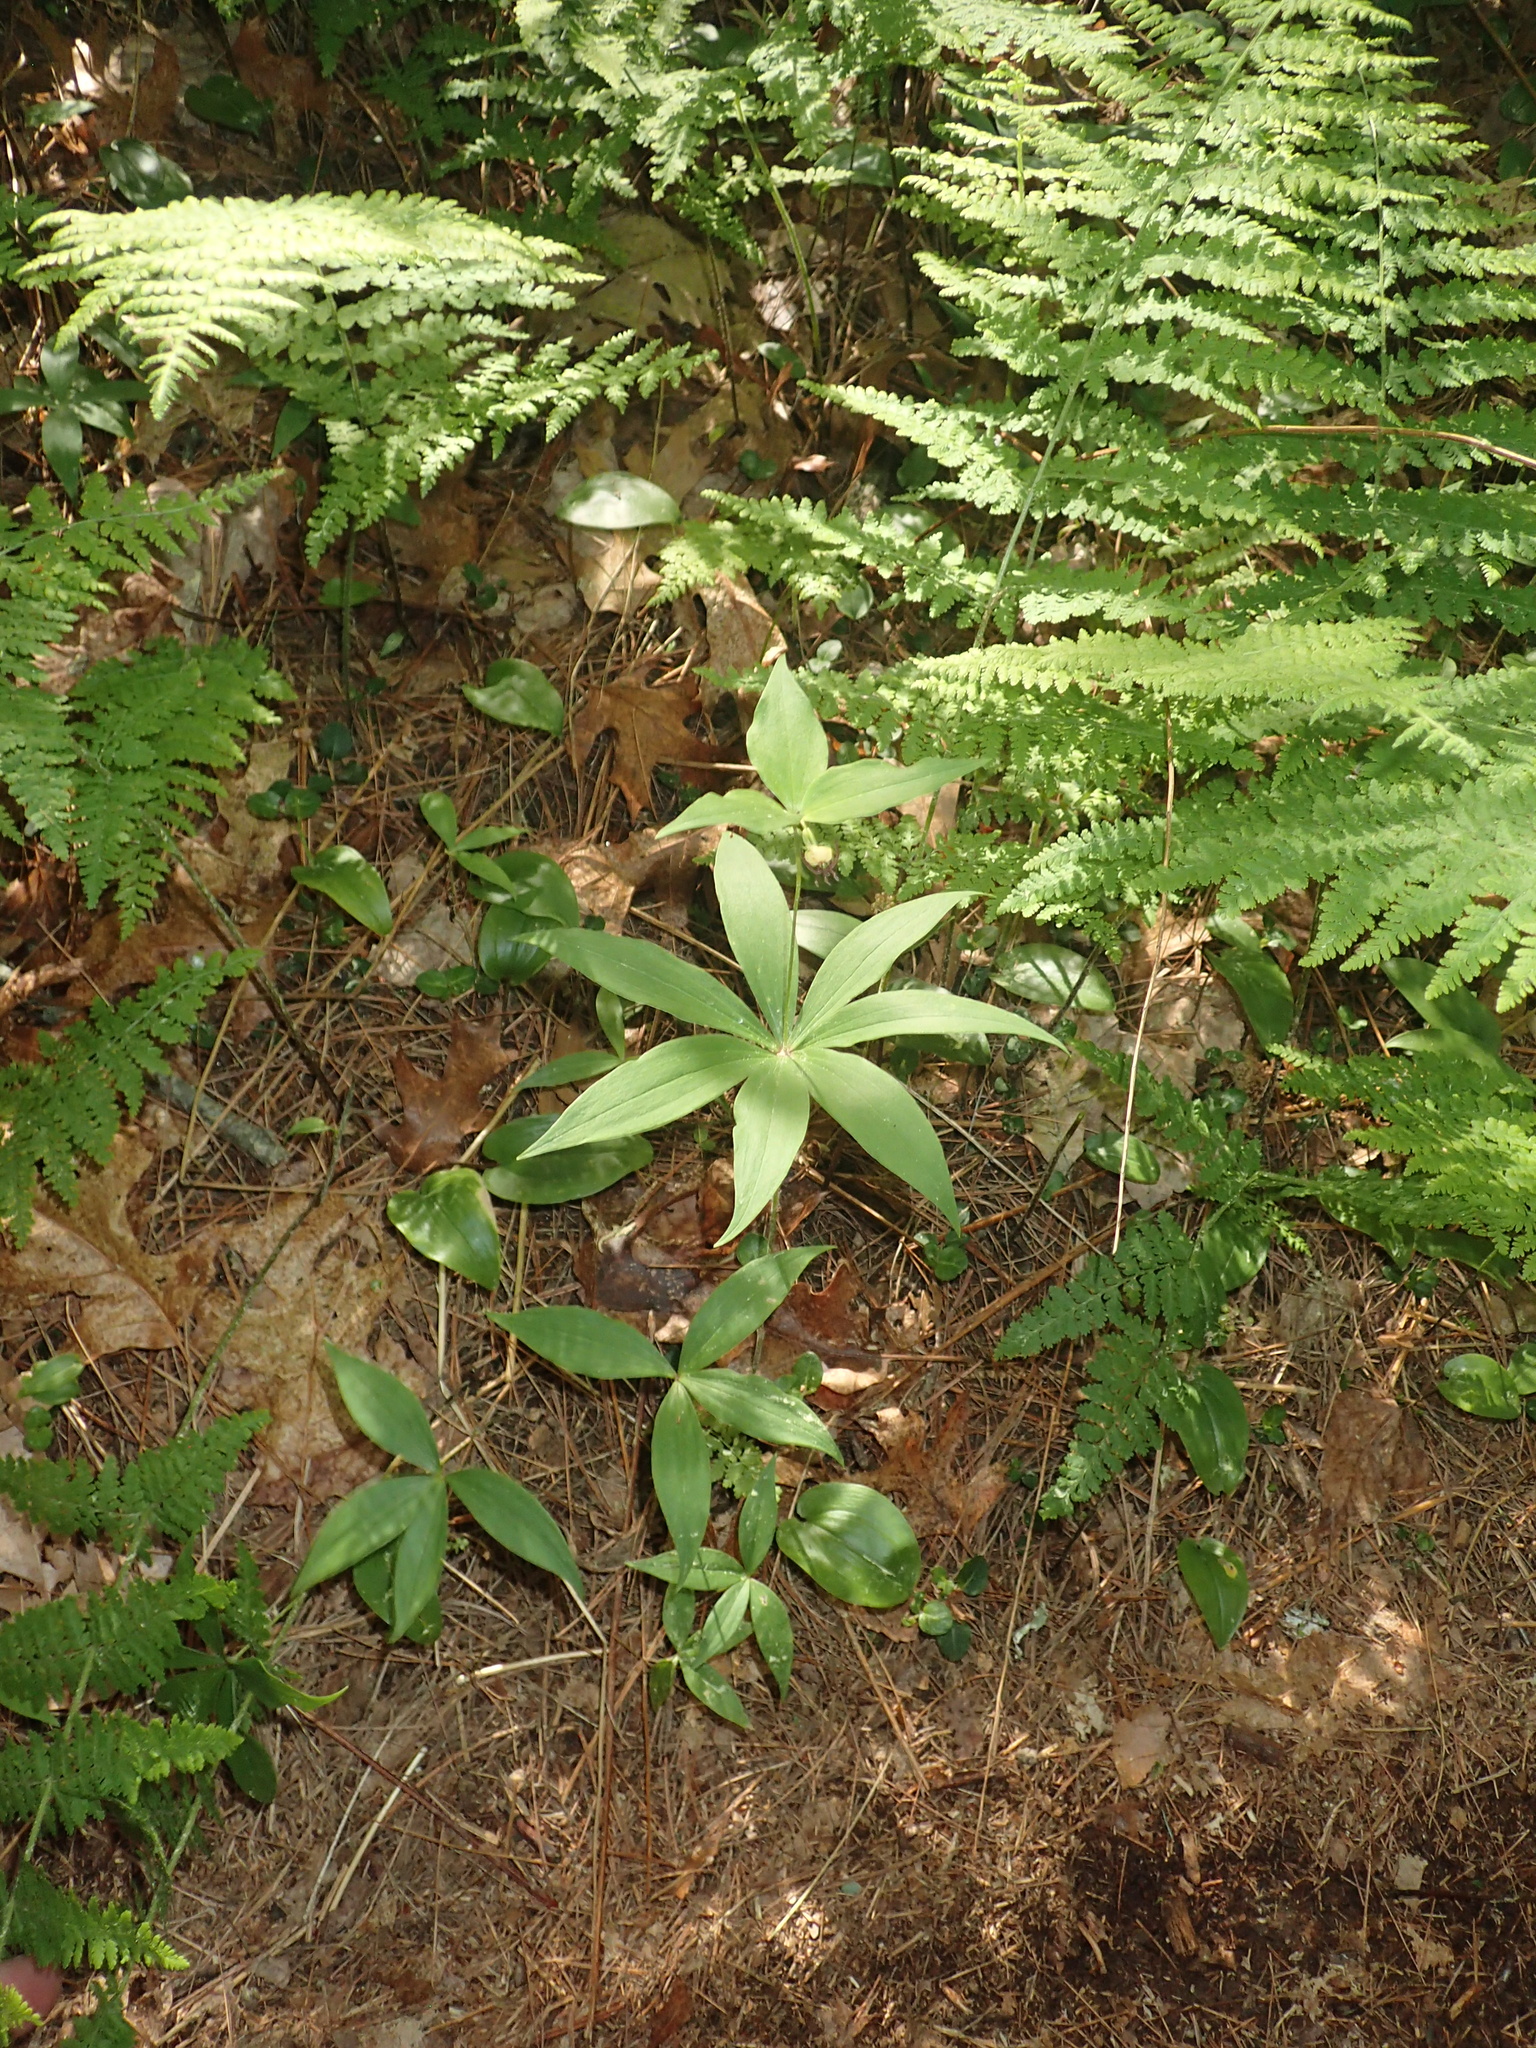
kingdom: Plantae
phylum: Tracheophyta
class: Liliopsida
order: Liliales
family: Liliaceae
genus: Medeola
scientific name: Medeola virginiana
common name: Indian cucumber-root
